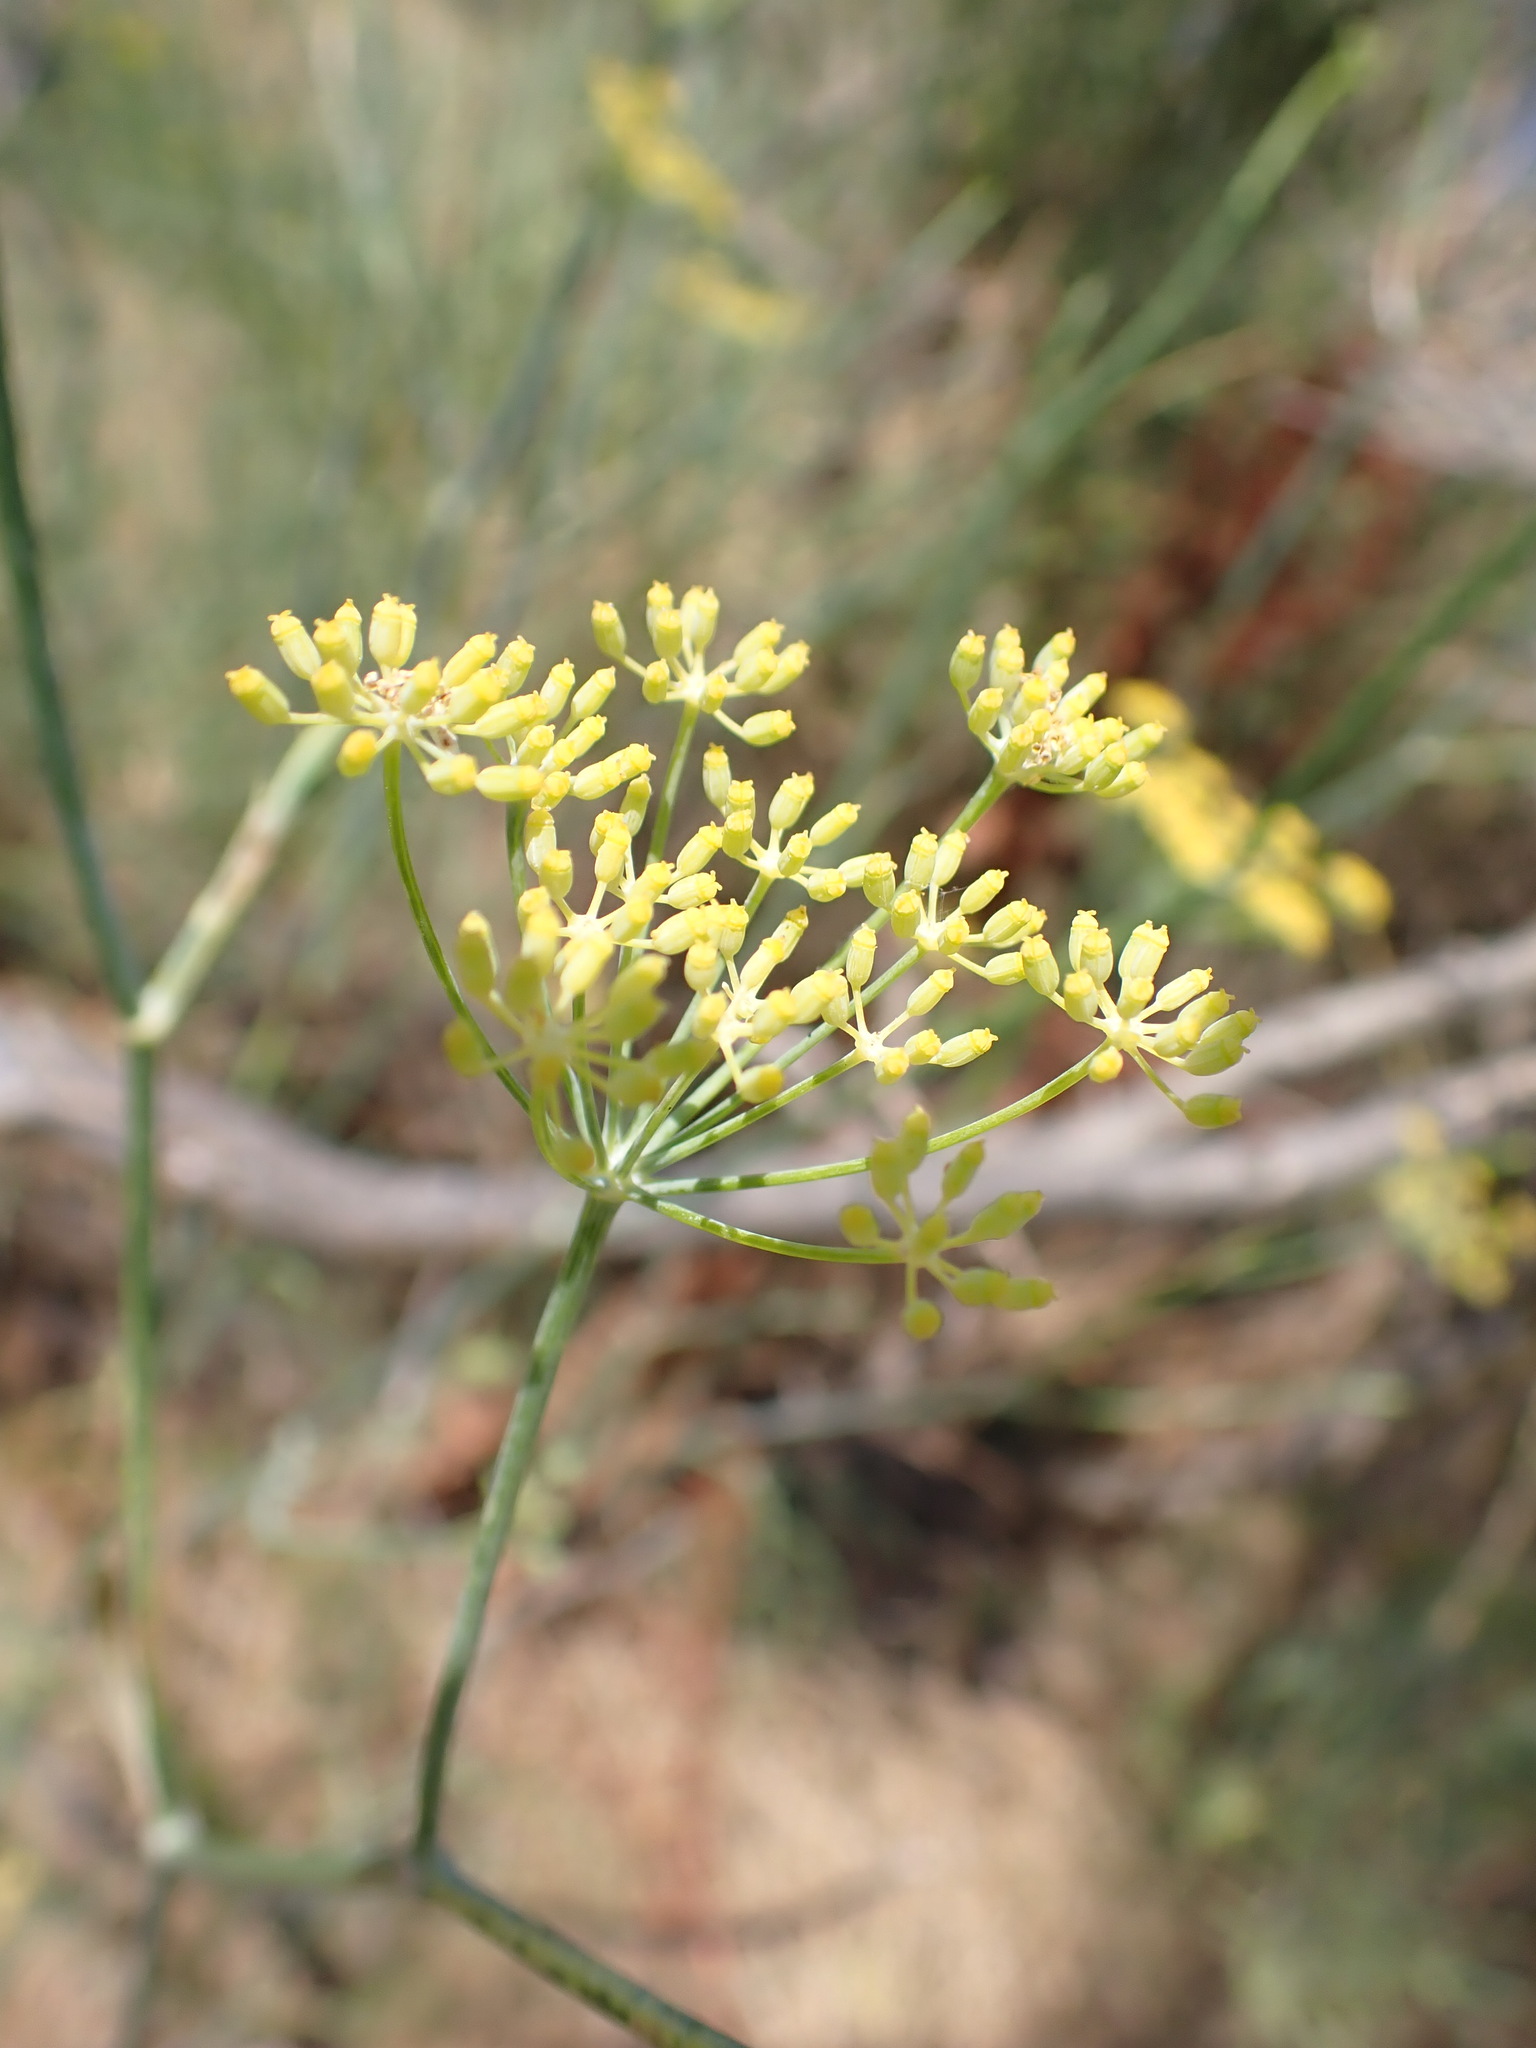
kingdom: Plantae
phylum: Tracheophyta
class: Magnoliopsida
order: Apiales
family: Apiaceae
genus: Foeniculum
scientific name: Foeniculum vulgare
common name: Fennel
